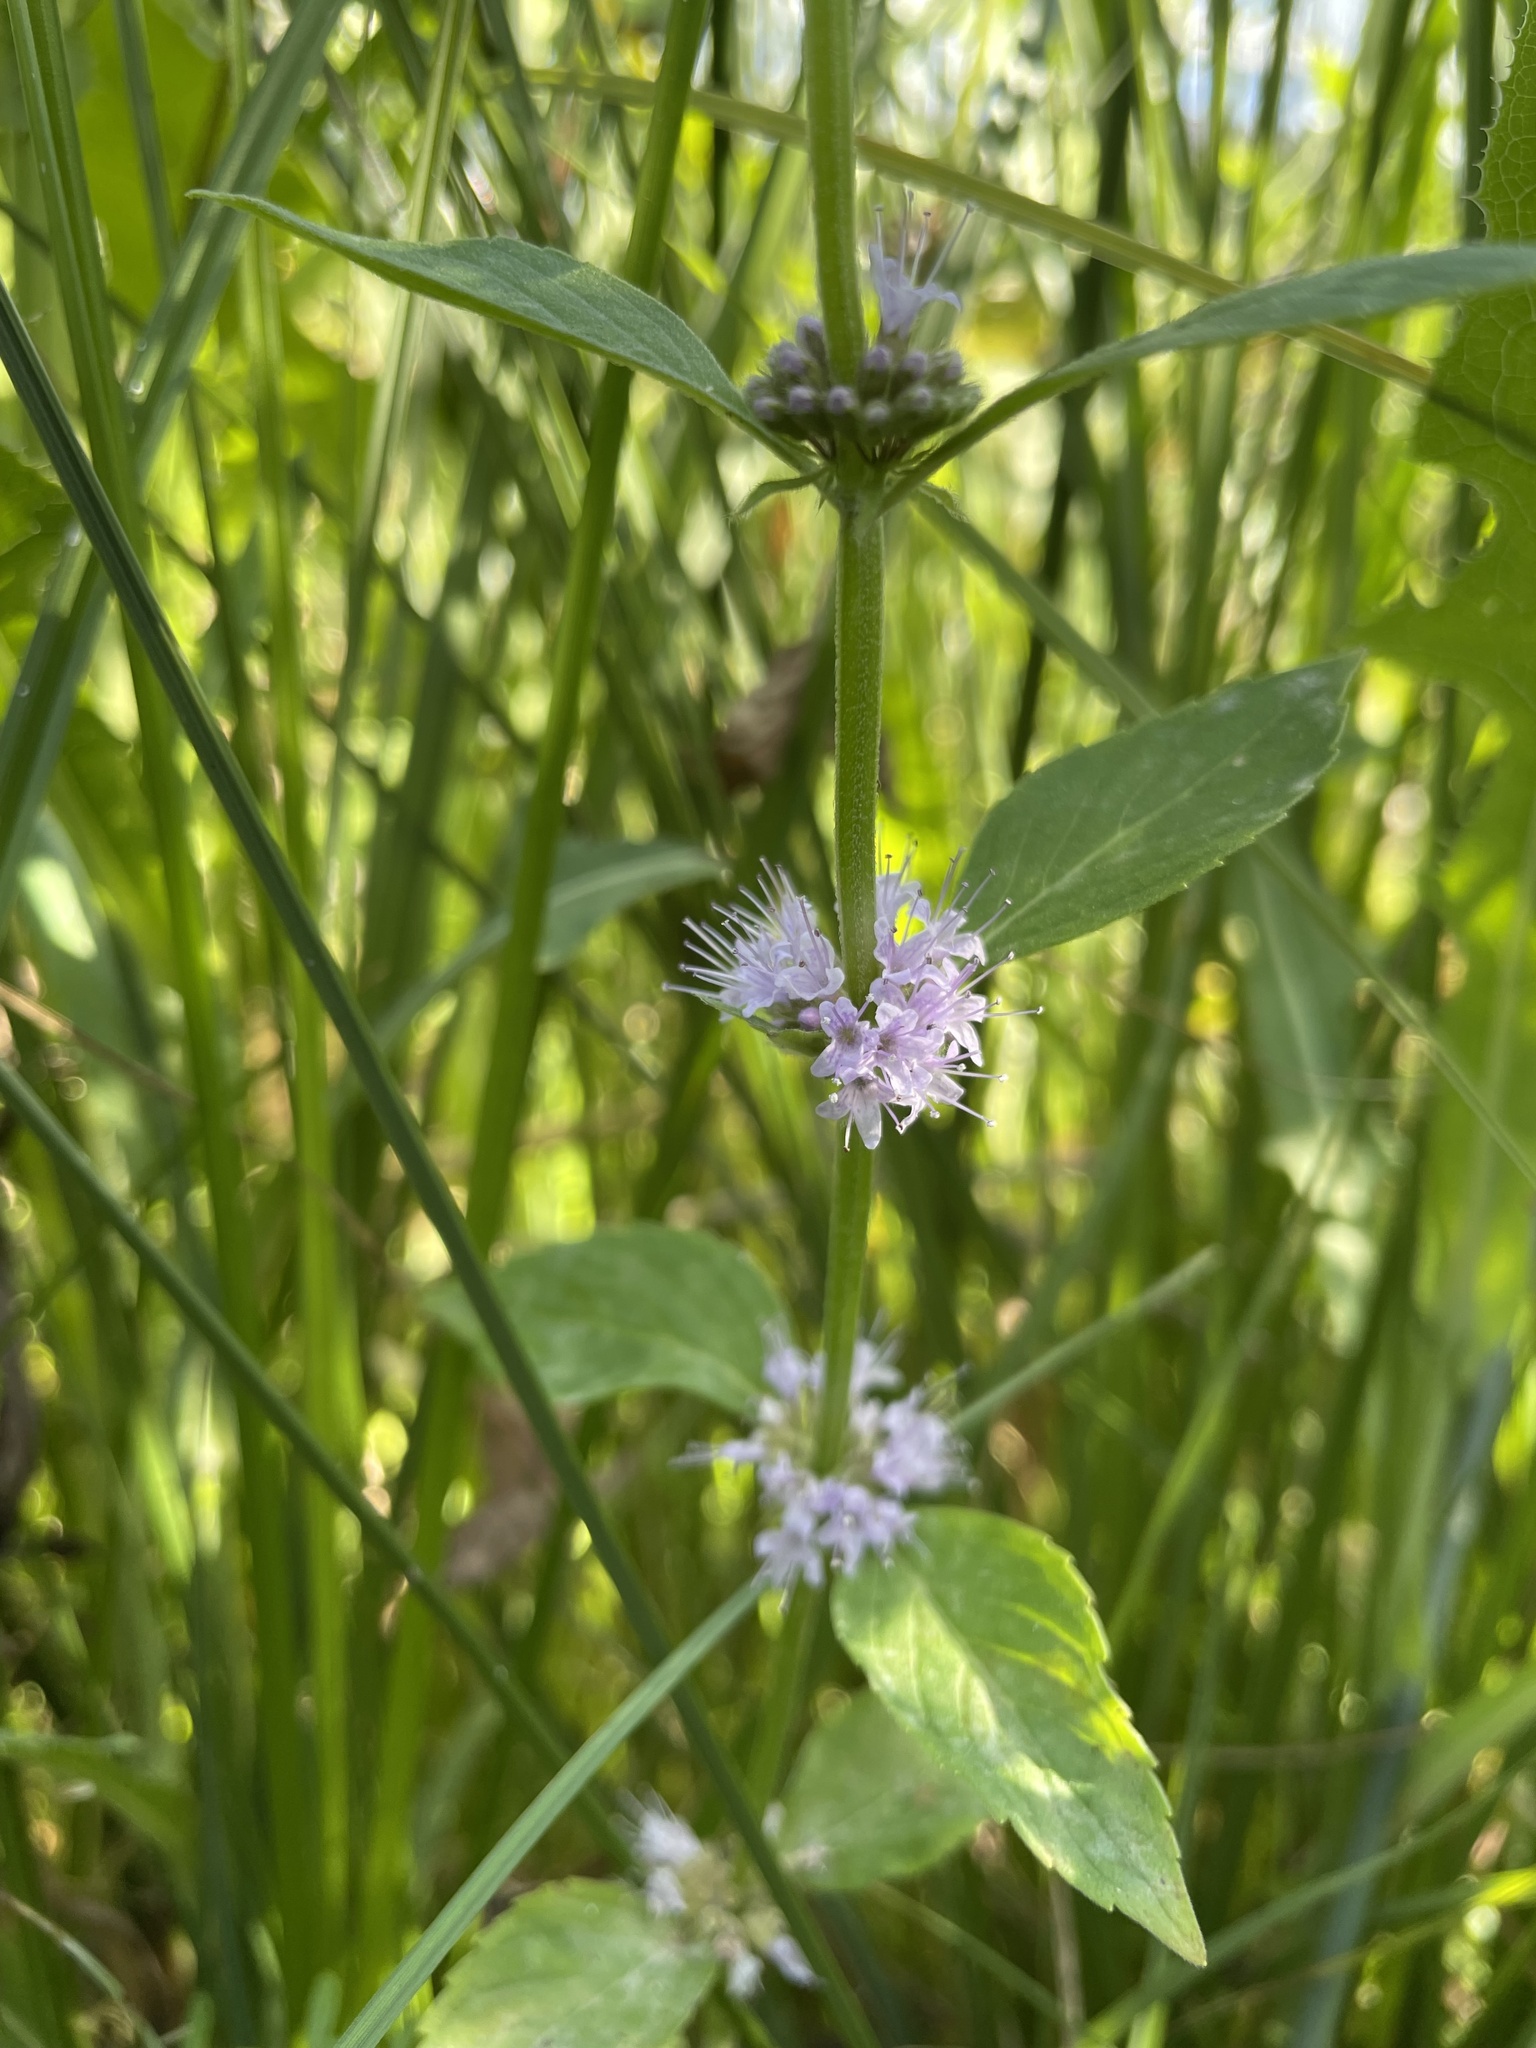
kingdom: Plantae
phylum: Tracheophyta
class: Magnoliopsida
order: Lamiales
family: Lamiaceae
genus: Mentha
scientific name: Mentha canadensis
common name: American corn mint
